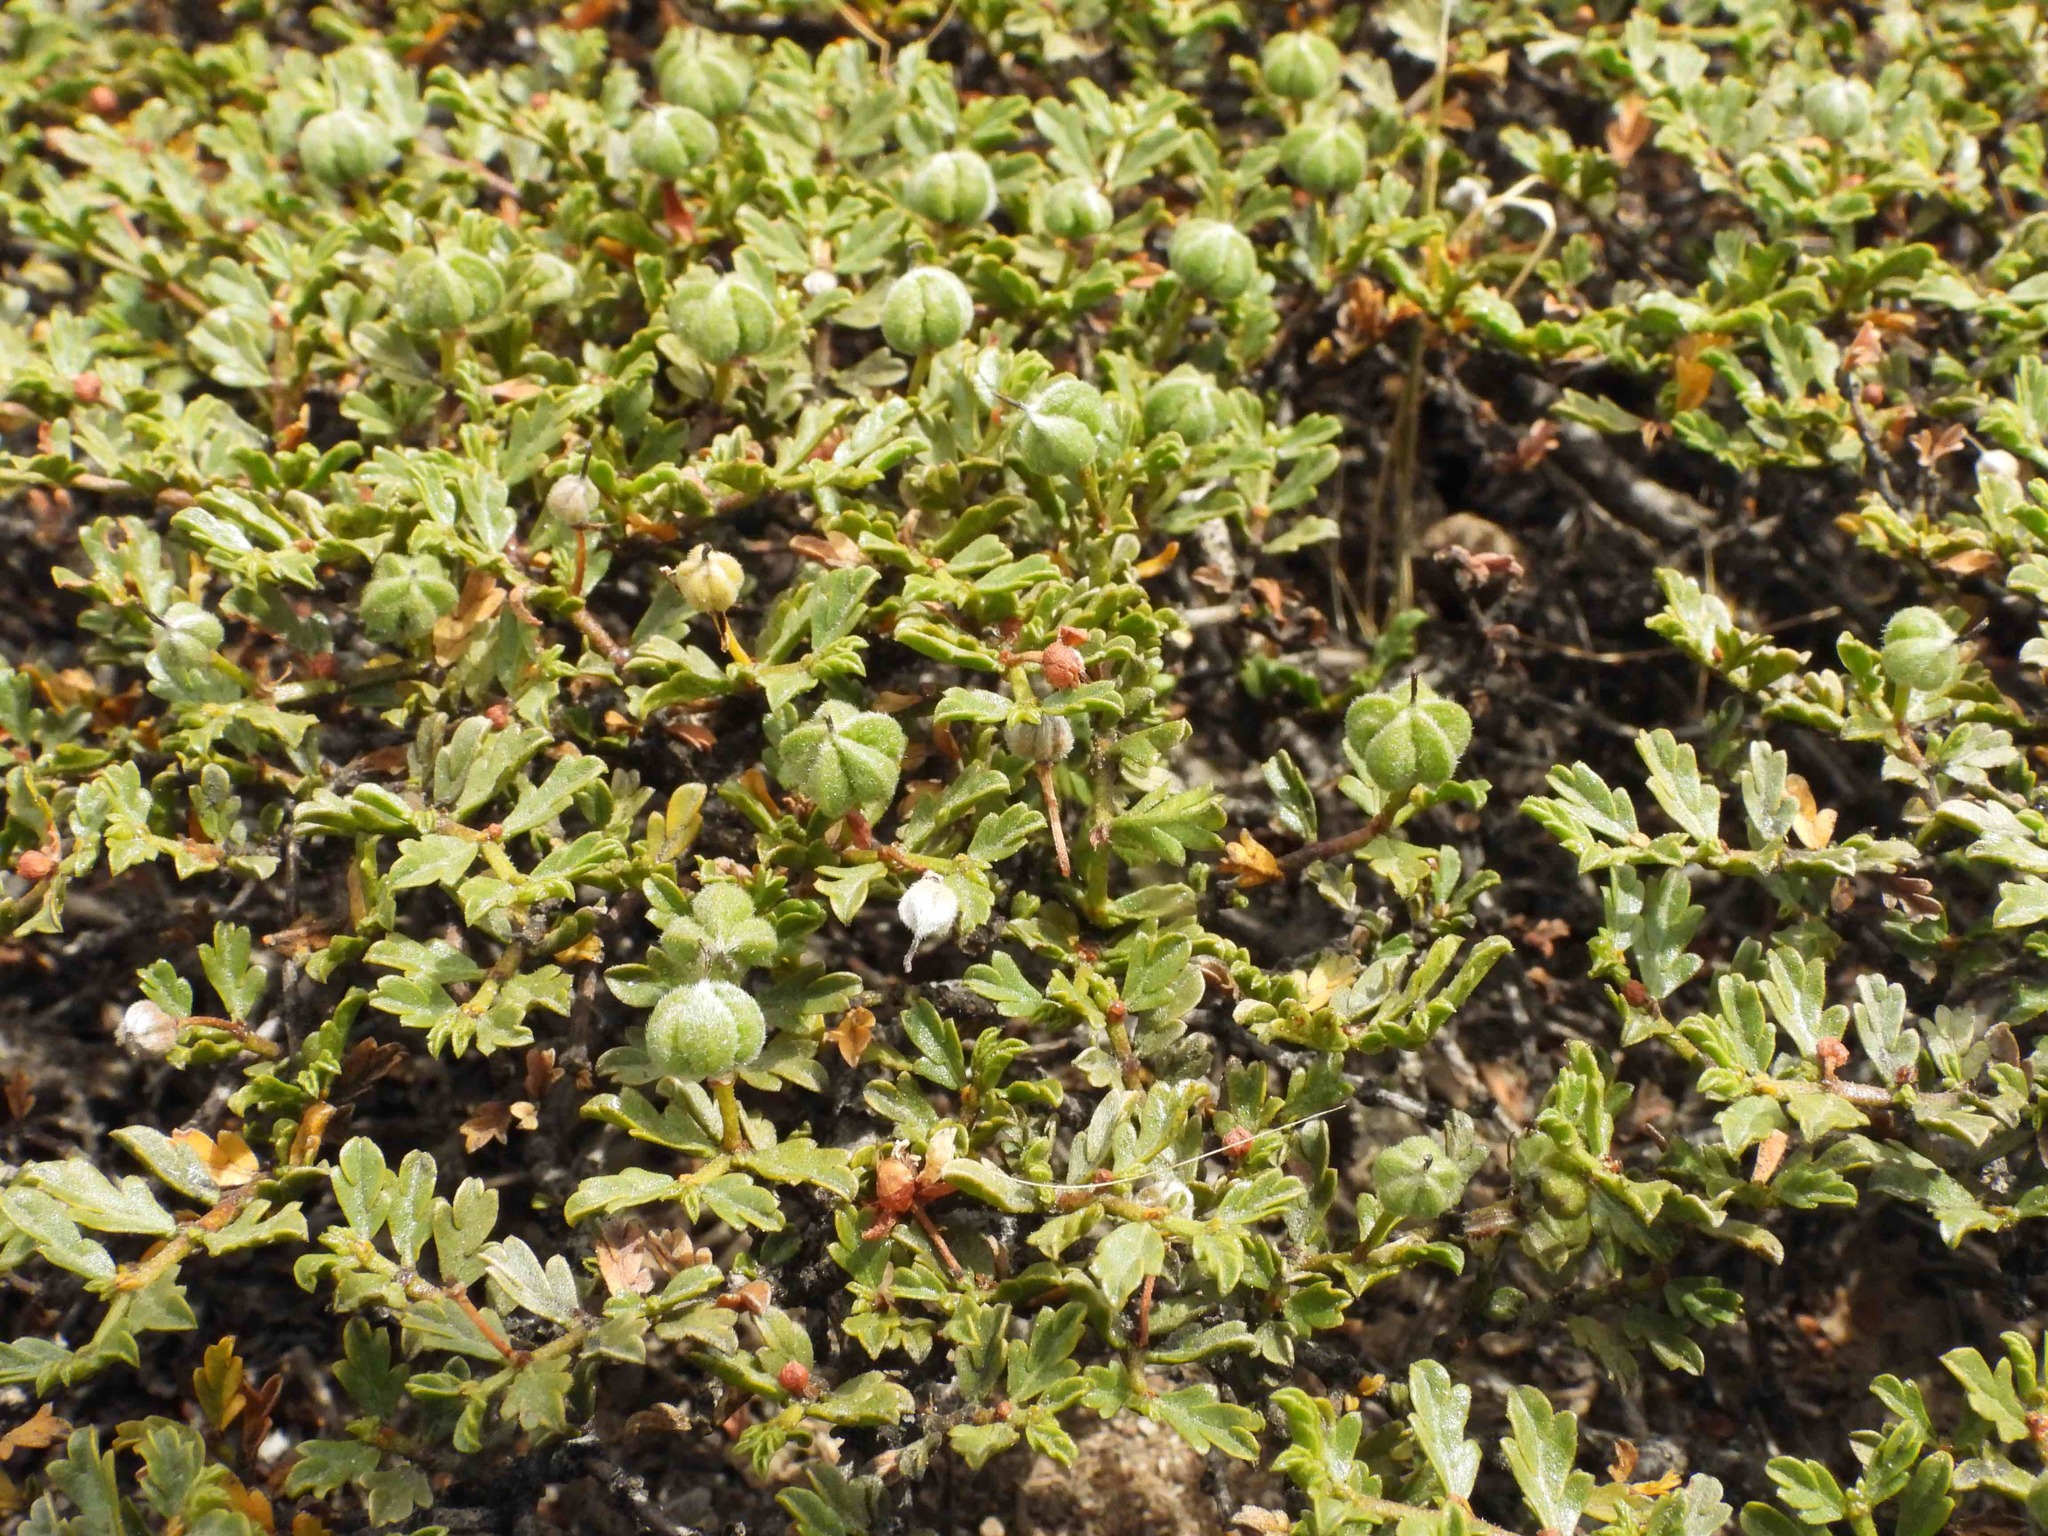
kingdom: Plantae
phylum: Tracheophyta
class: Magnoliopsida
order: Zygophyllales
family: Zygophyllaceae
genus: Larrea
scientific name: Larrea ameghinoi
